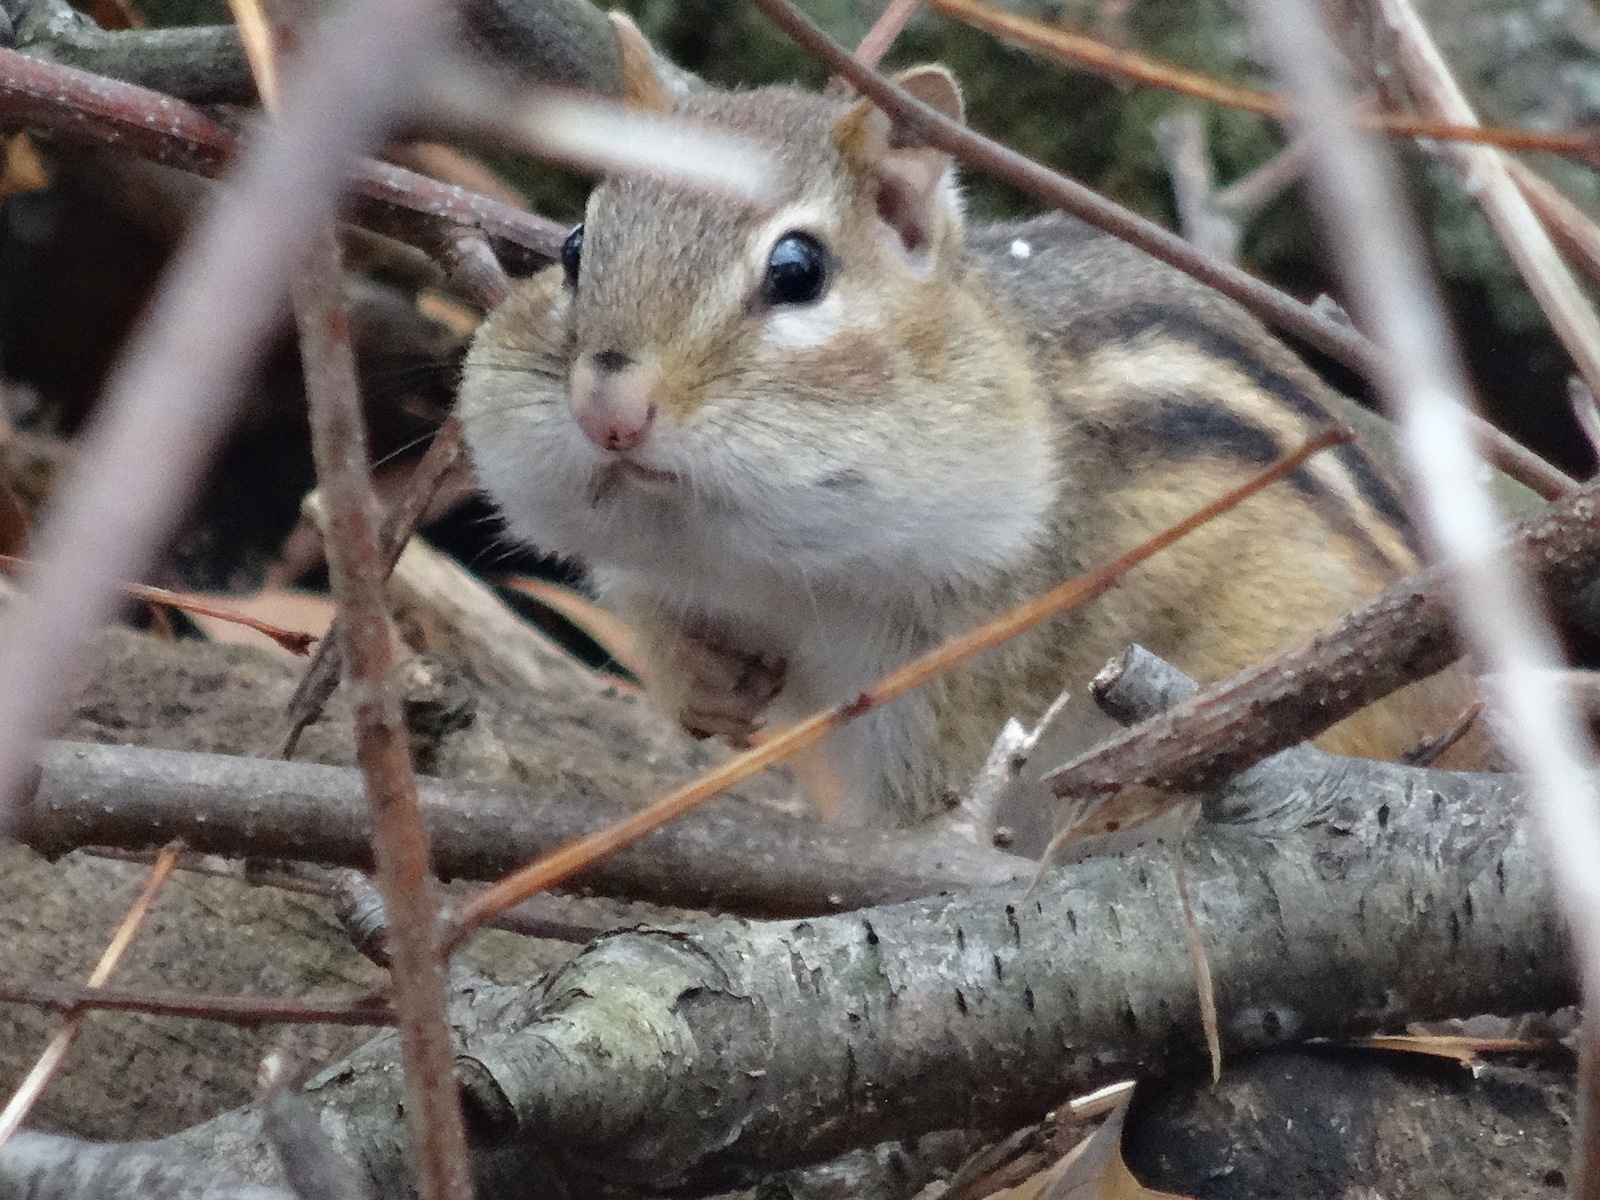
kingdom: Animalia
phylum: Chordata
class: Mammalia
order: Rodentia
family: Sciuridae
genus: Tamias
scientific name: Tamias striatus
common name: Eastern chipmunk
